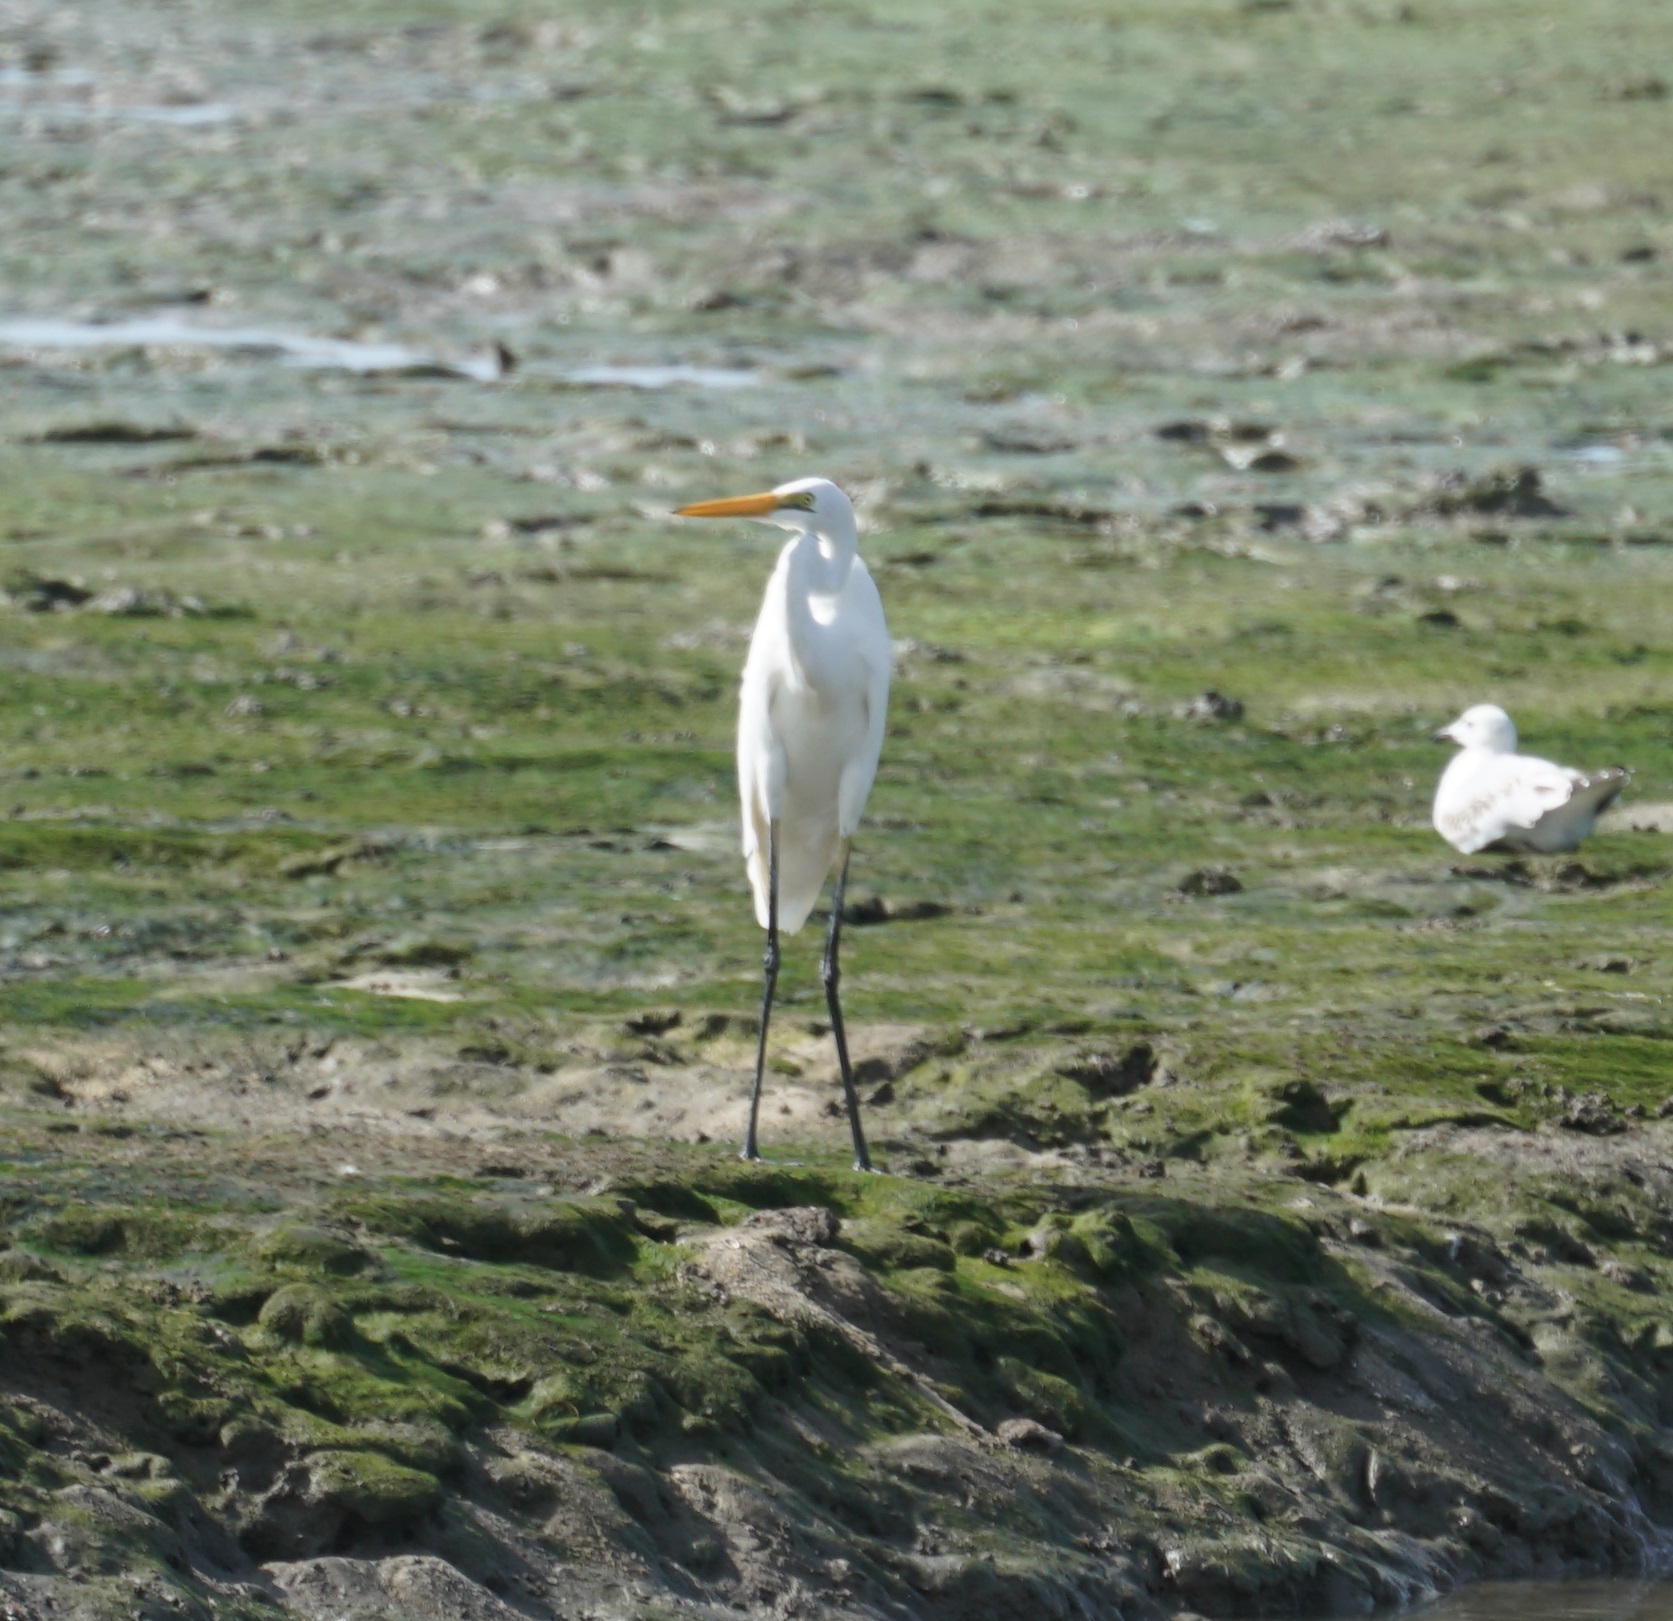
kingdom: Animalia
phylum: Chordata
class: Aves
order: Pelecaniformes
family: Ardeidae
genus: Ardea
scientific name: Ardea alba
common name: Great egret
